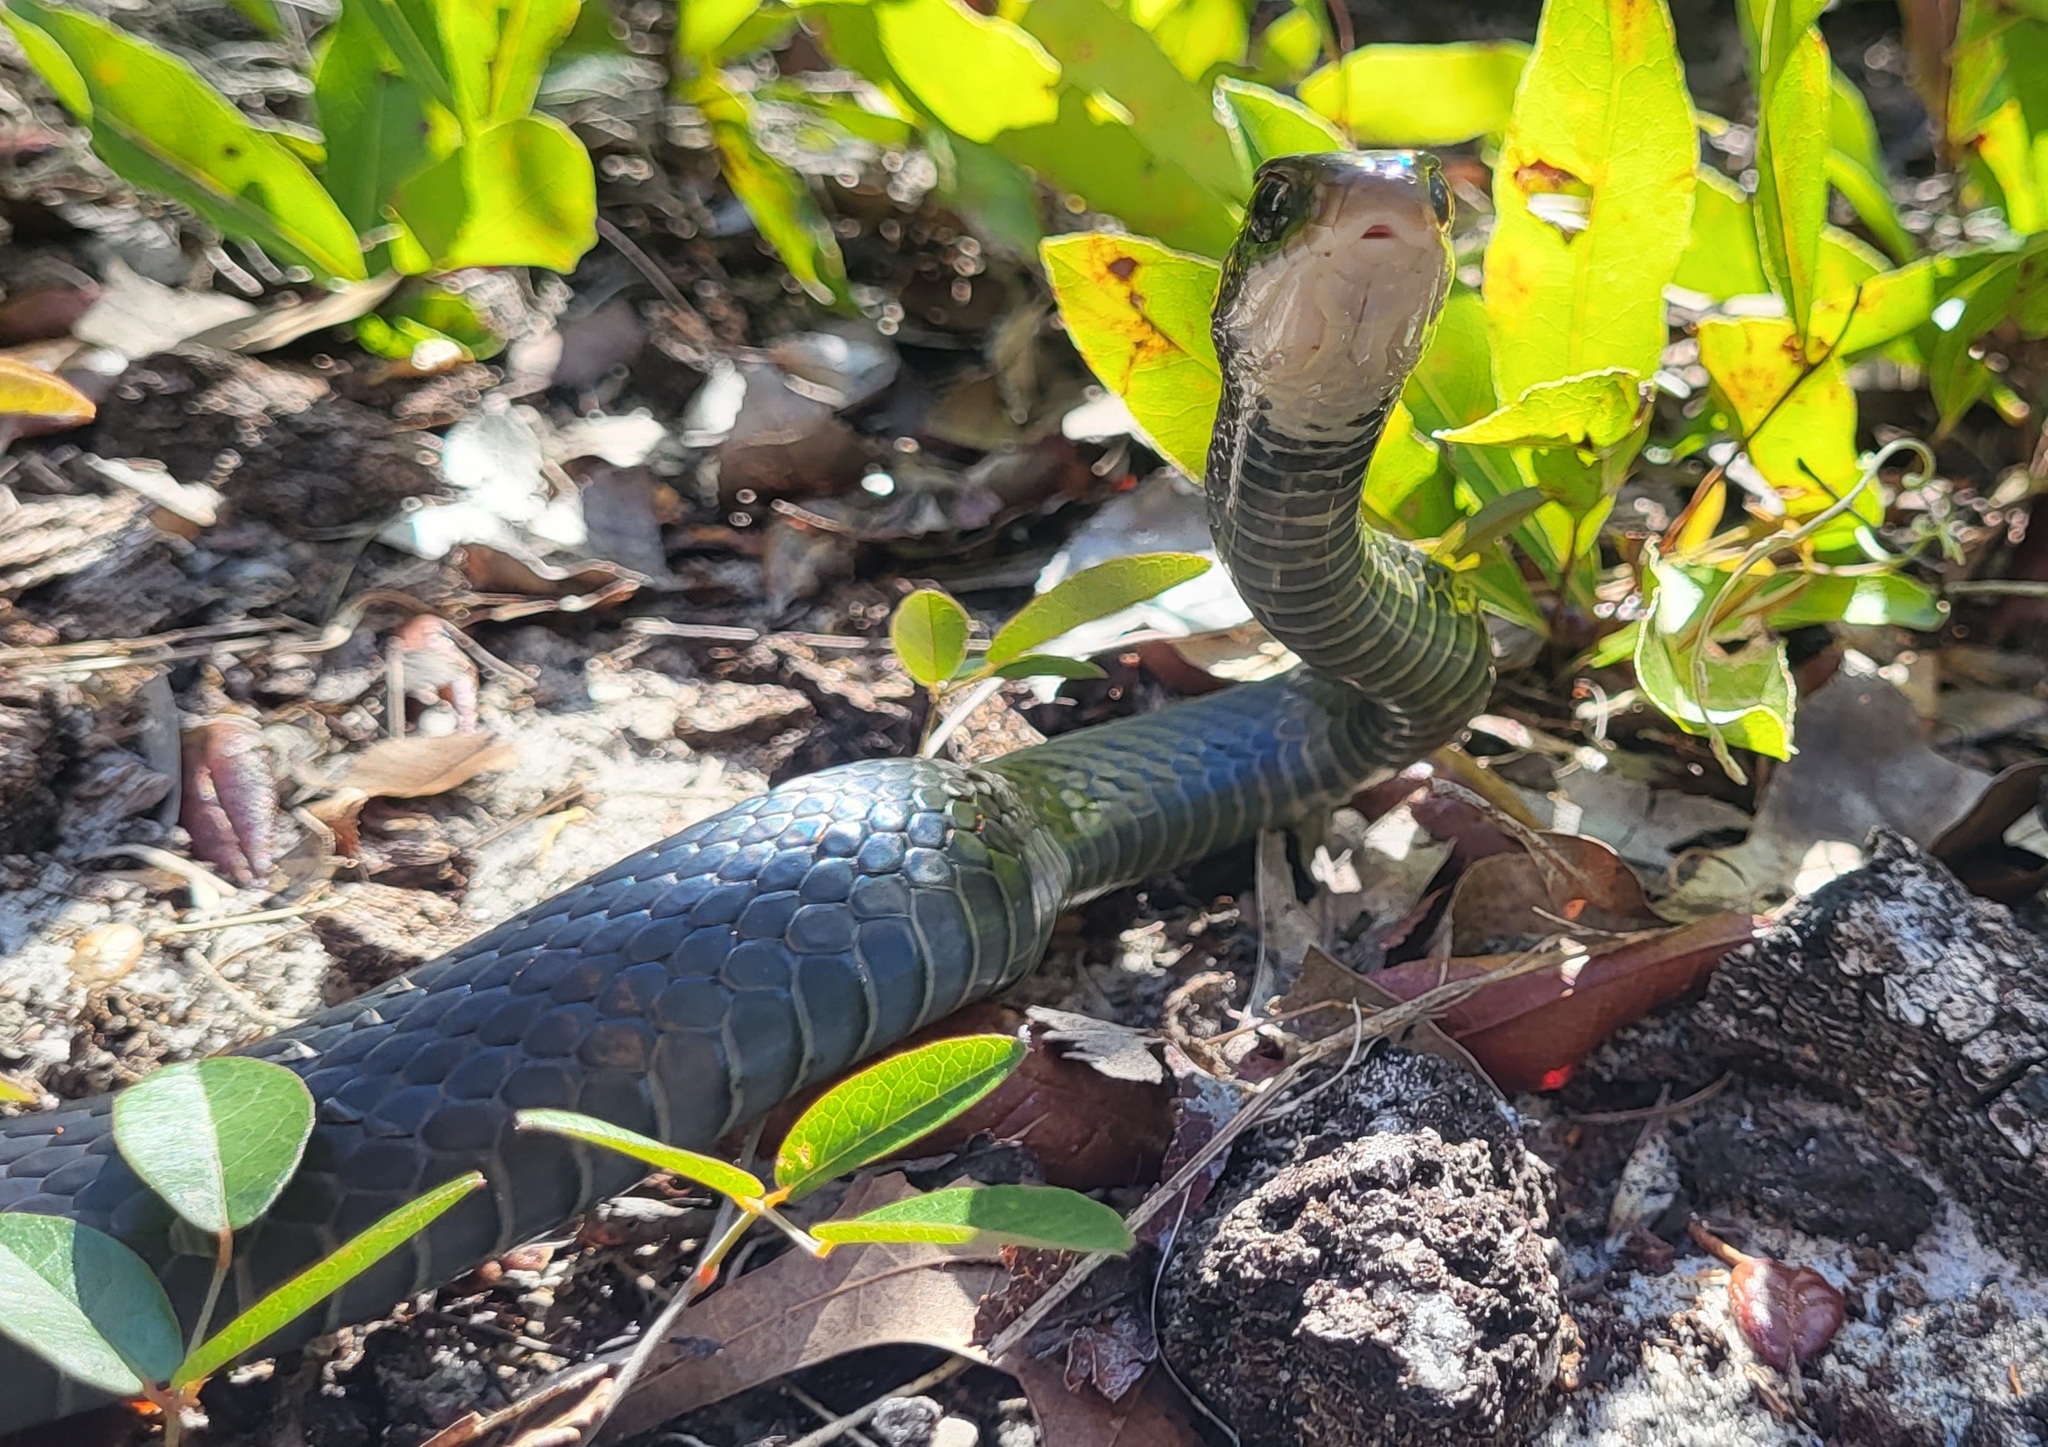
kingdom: Animalia
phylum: Chordata
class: Squamata
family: Colubridae
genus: Coluber
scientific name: Coluber constrictor
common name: Eastern racer
